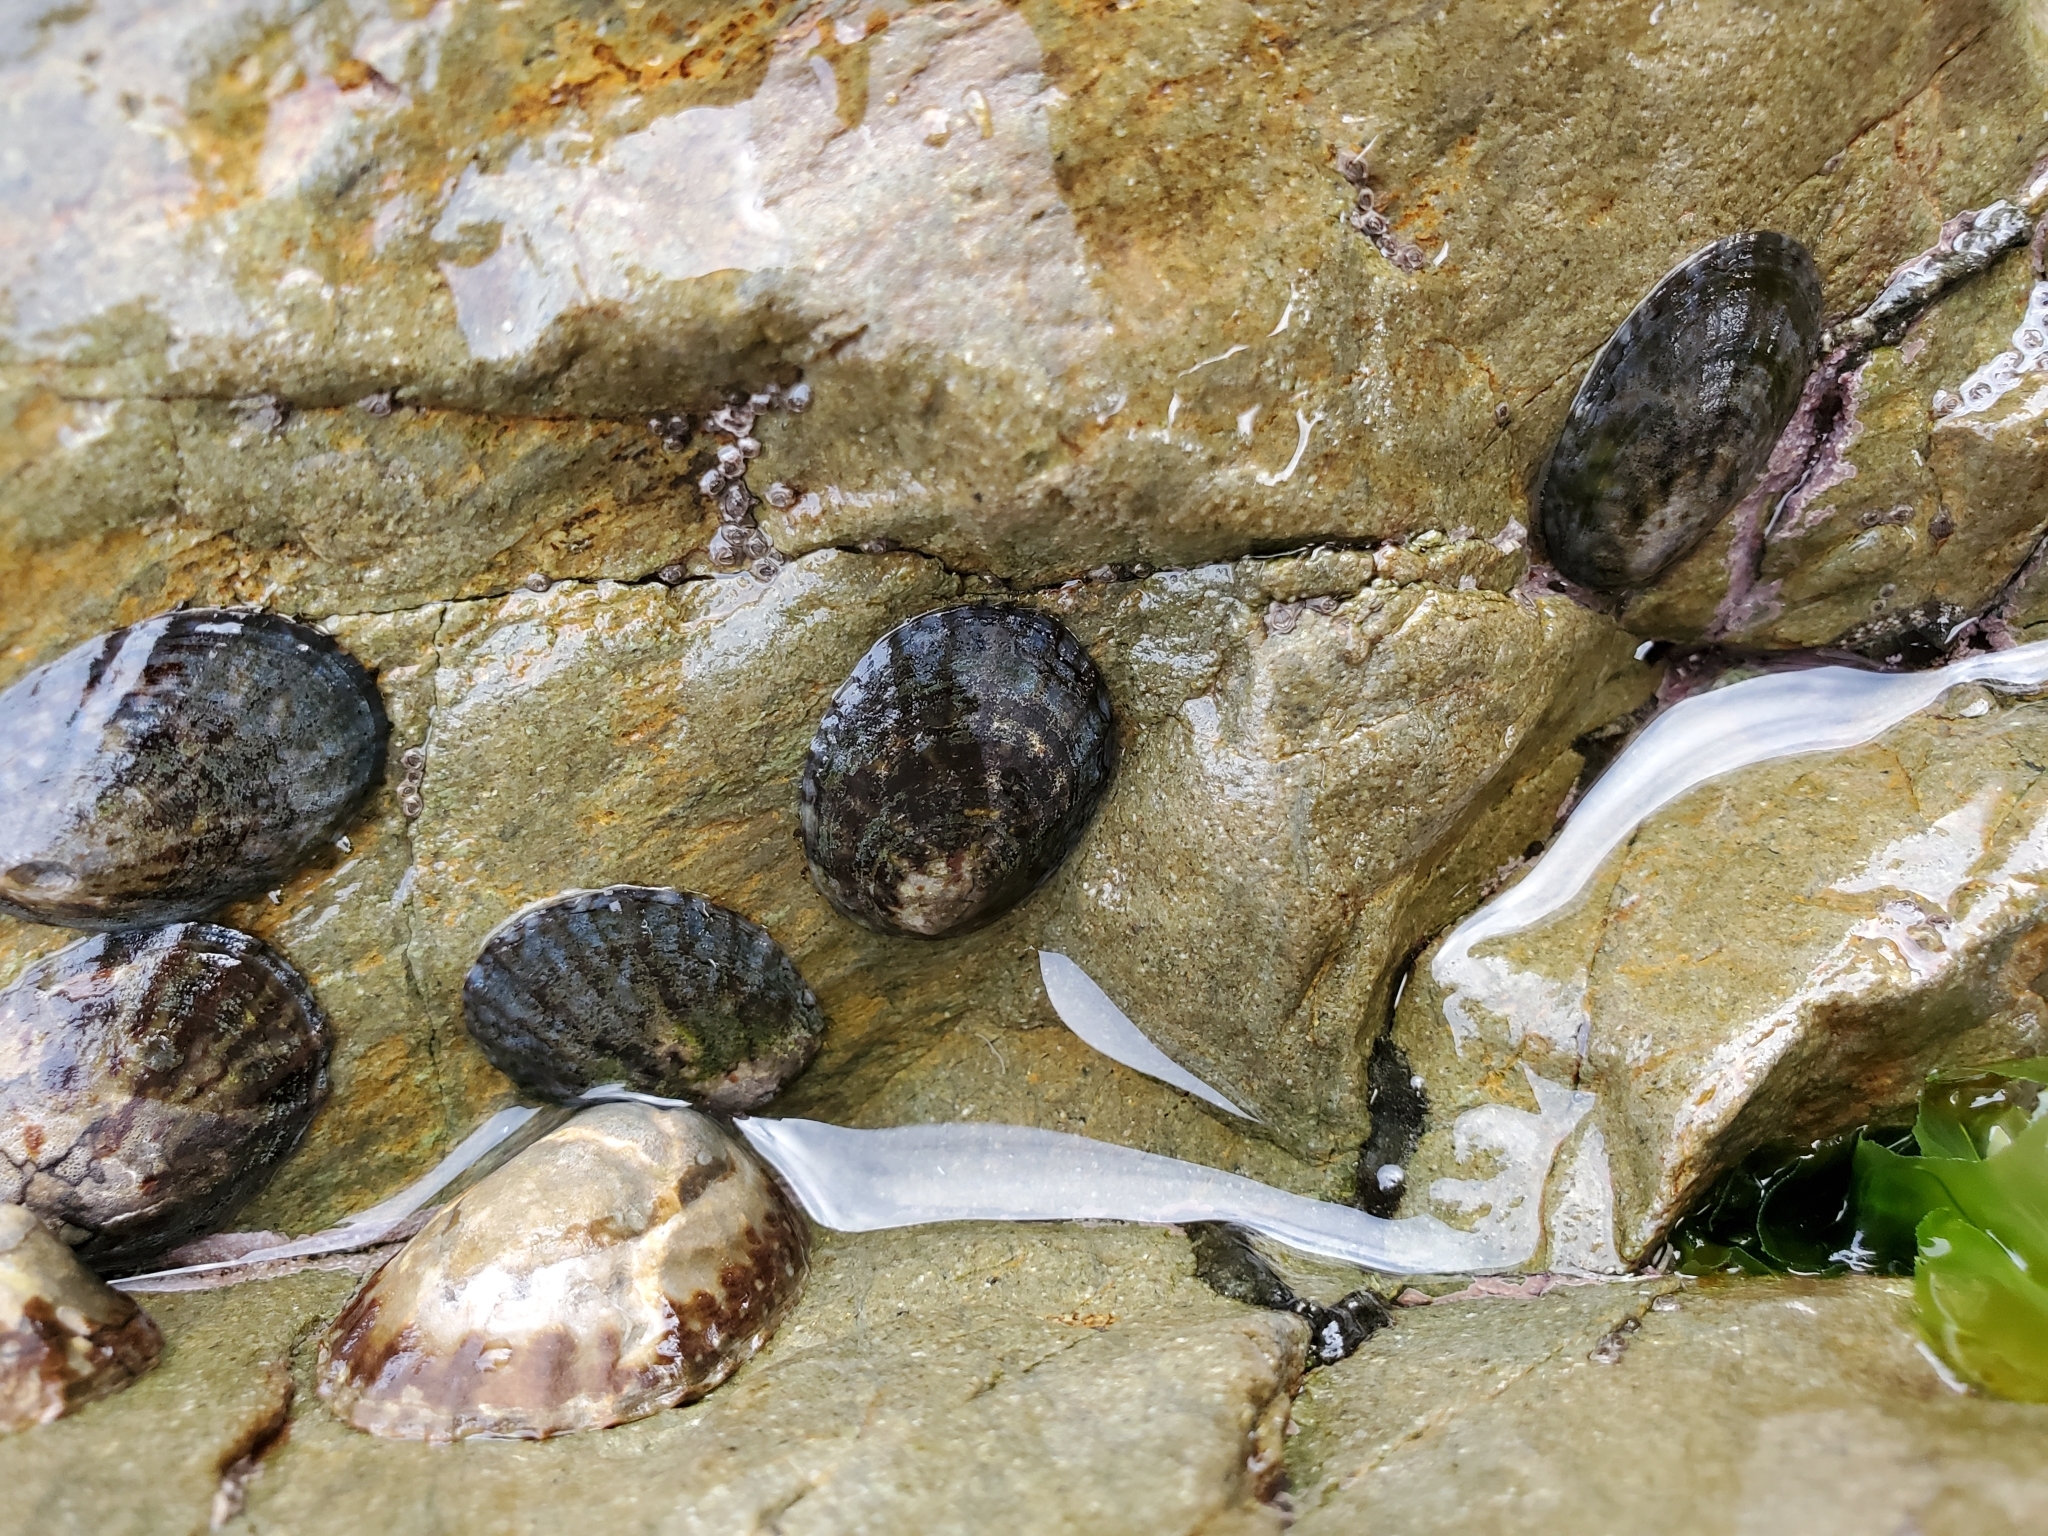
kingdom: Animalia
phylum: Mollusca
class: Gastropoda
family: Nacellidae
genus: Cellana
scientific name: Cellana radians
